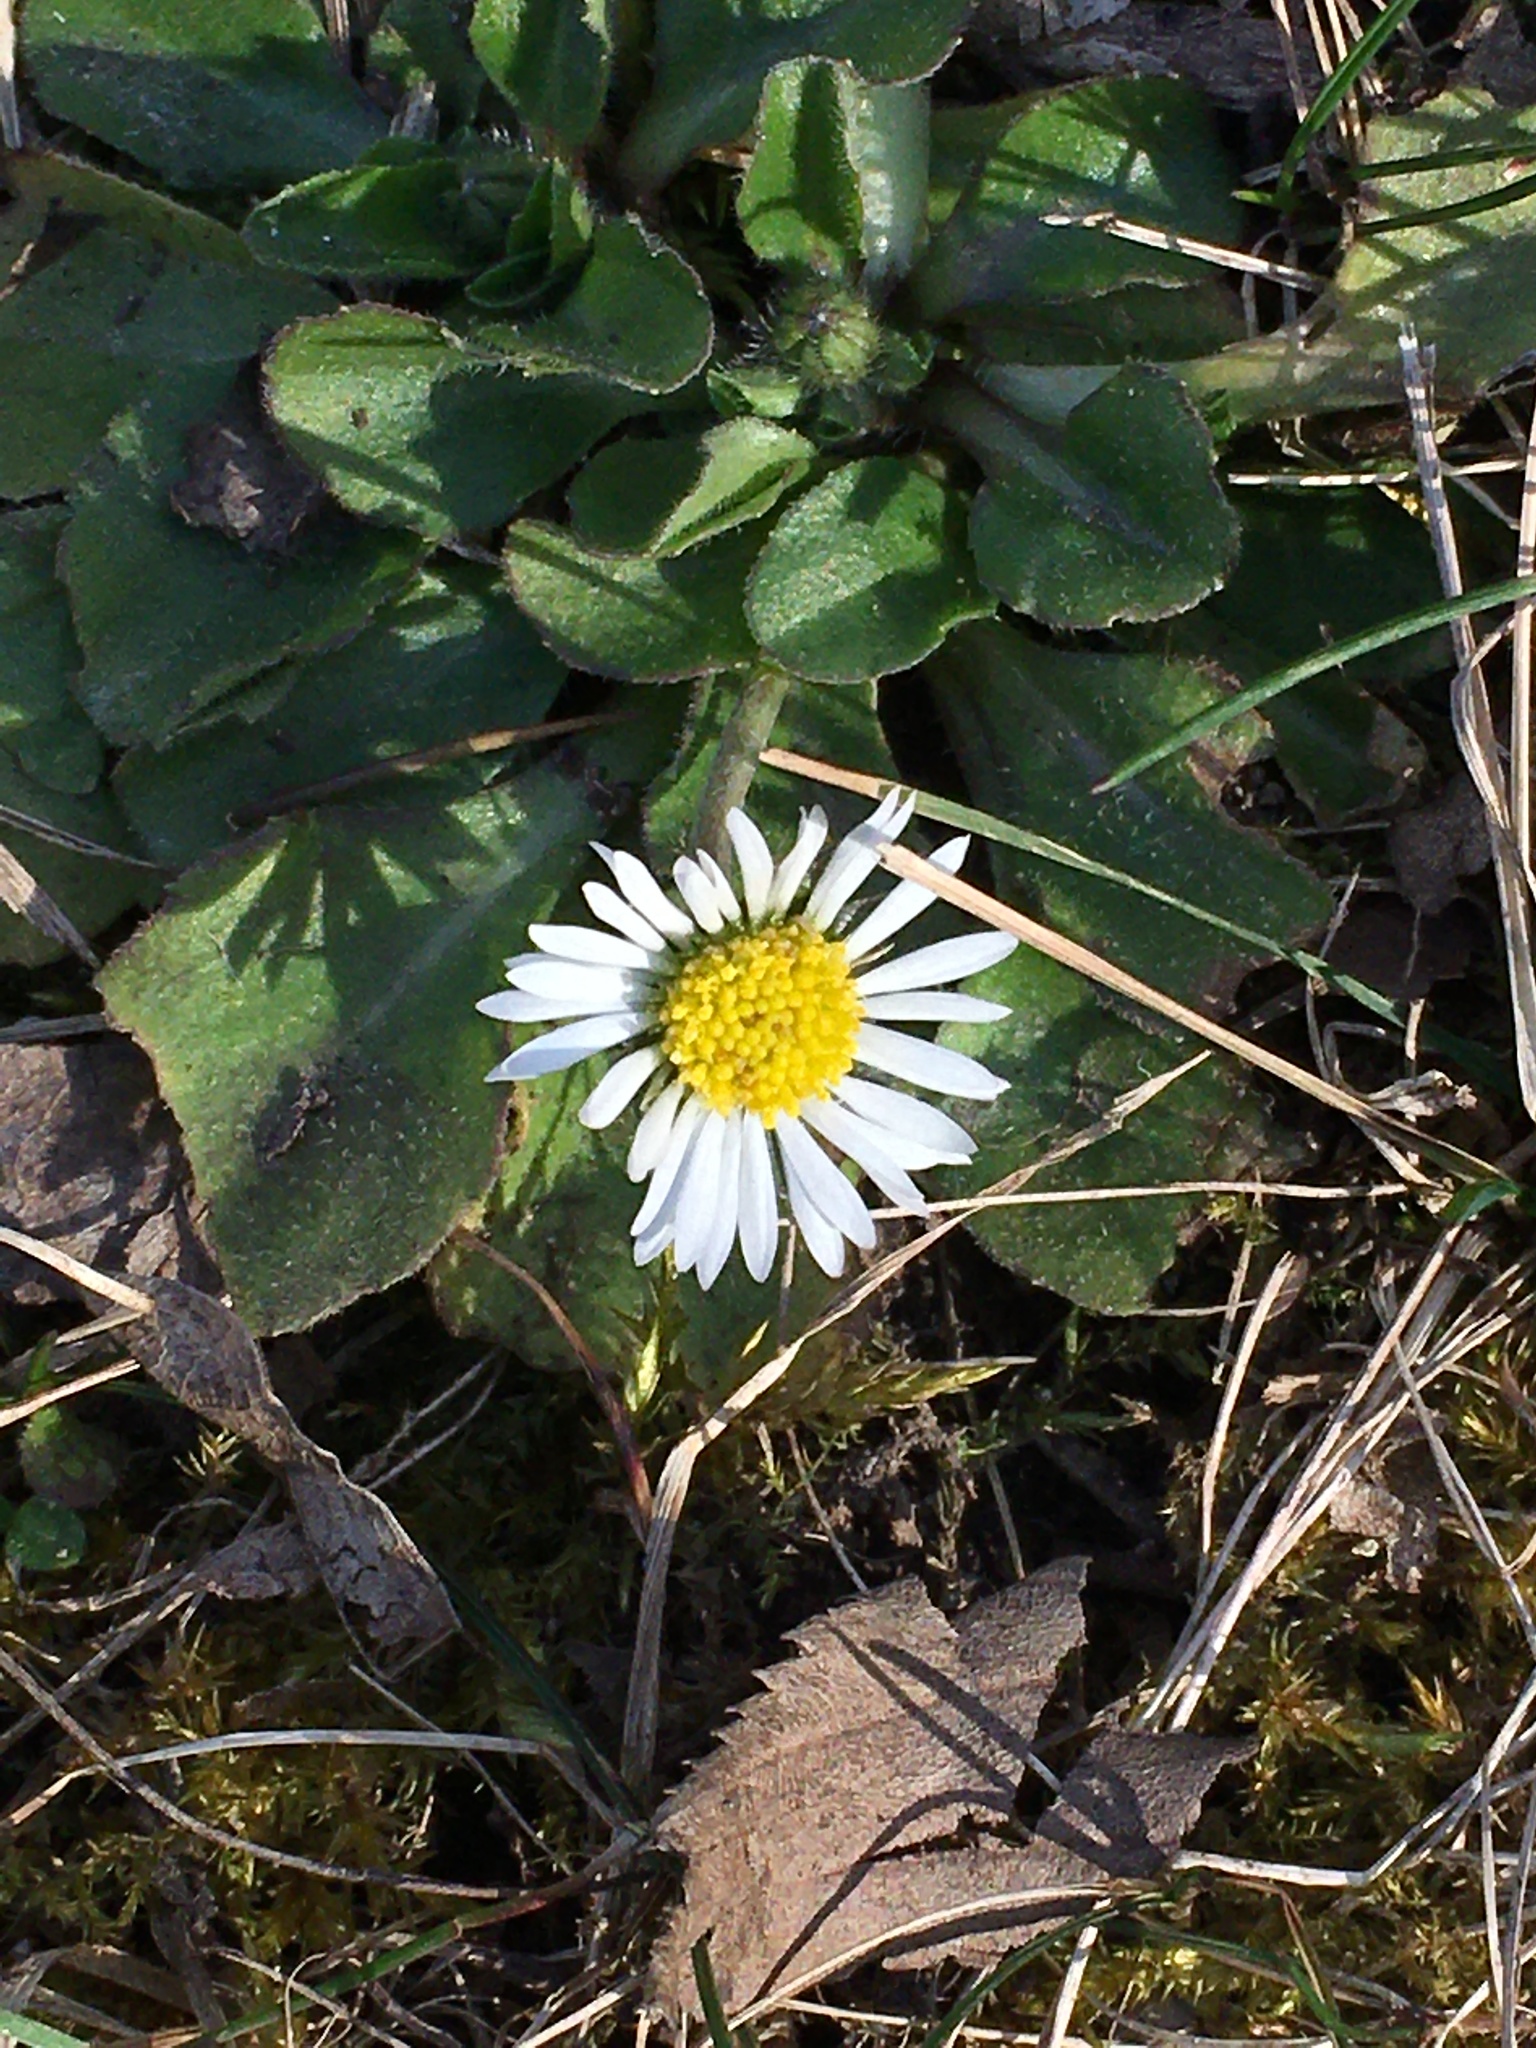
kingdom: Plantae
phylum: Tracheophyta
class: Magnoliopsida
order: Asterales
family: Asteraceae
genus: Bellis
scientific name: Bellis perennis
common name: Lawndaisy
